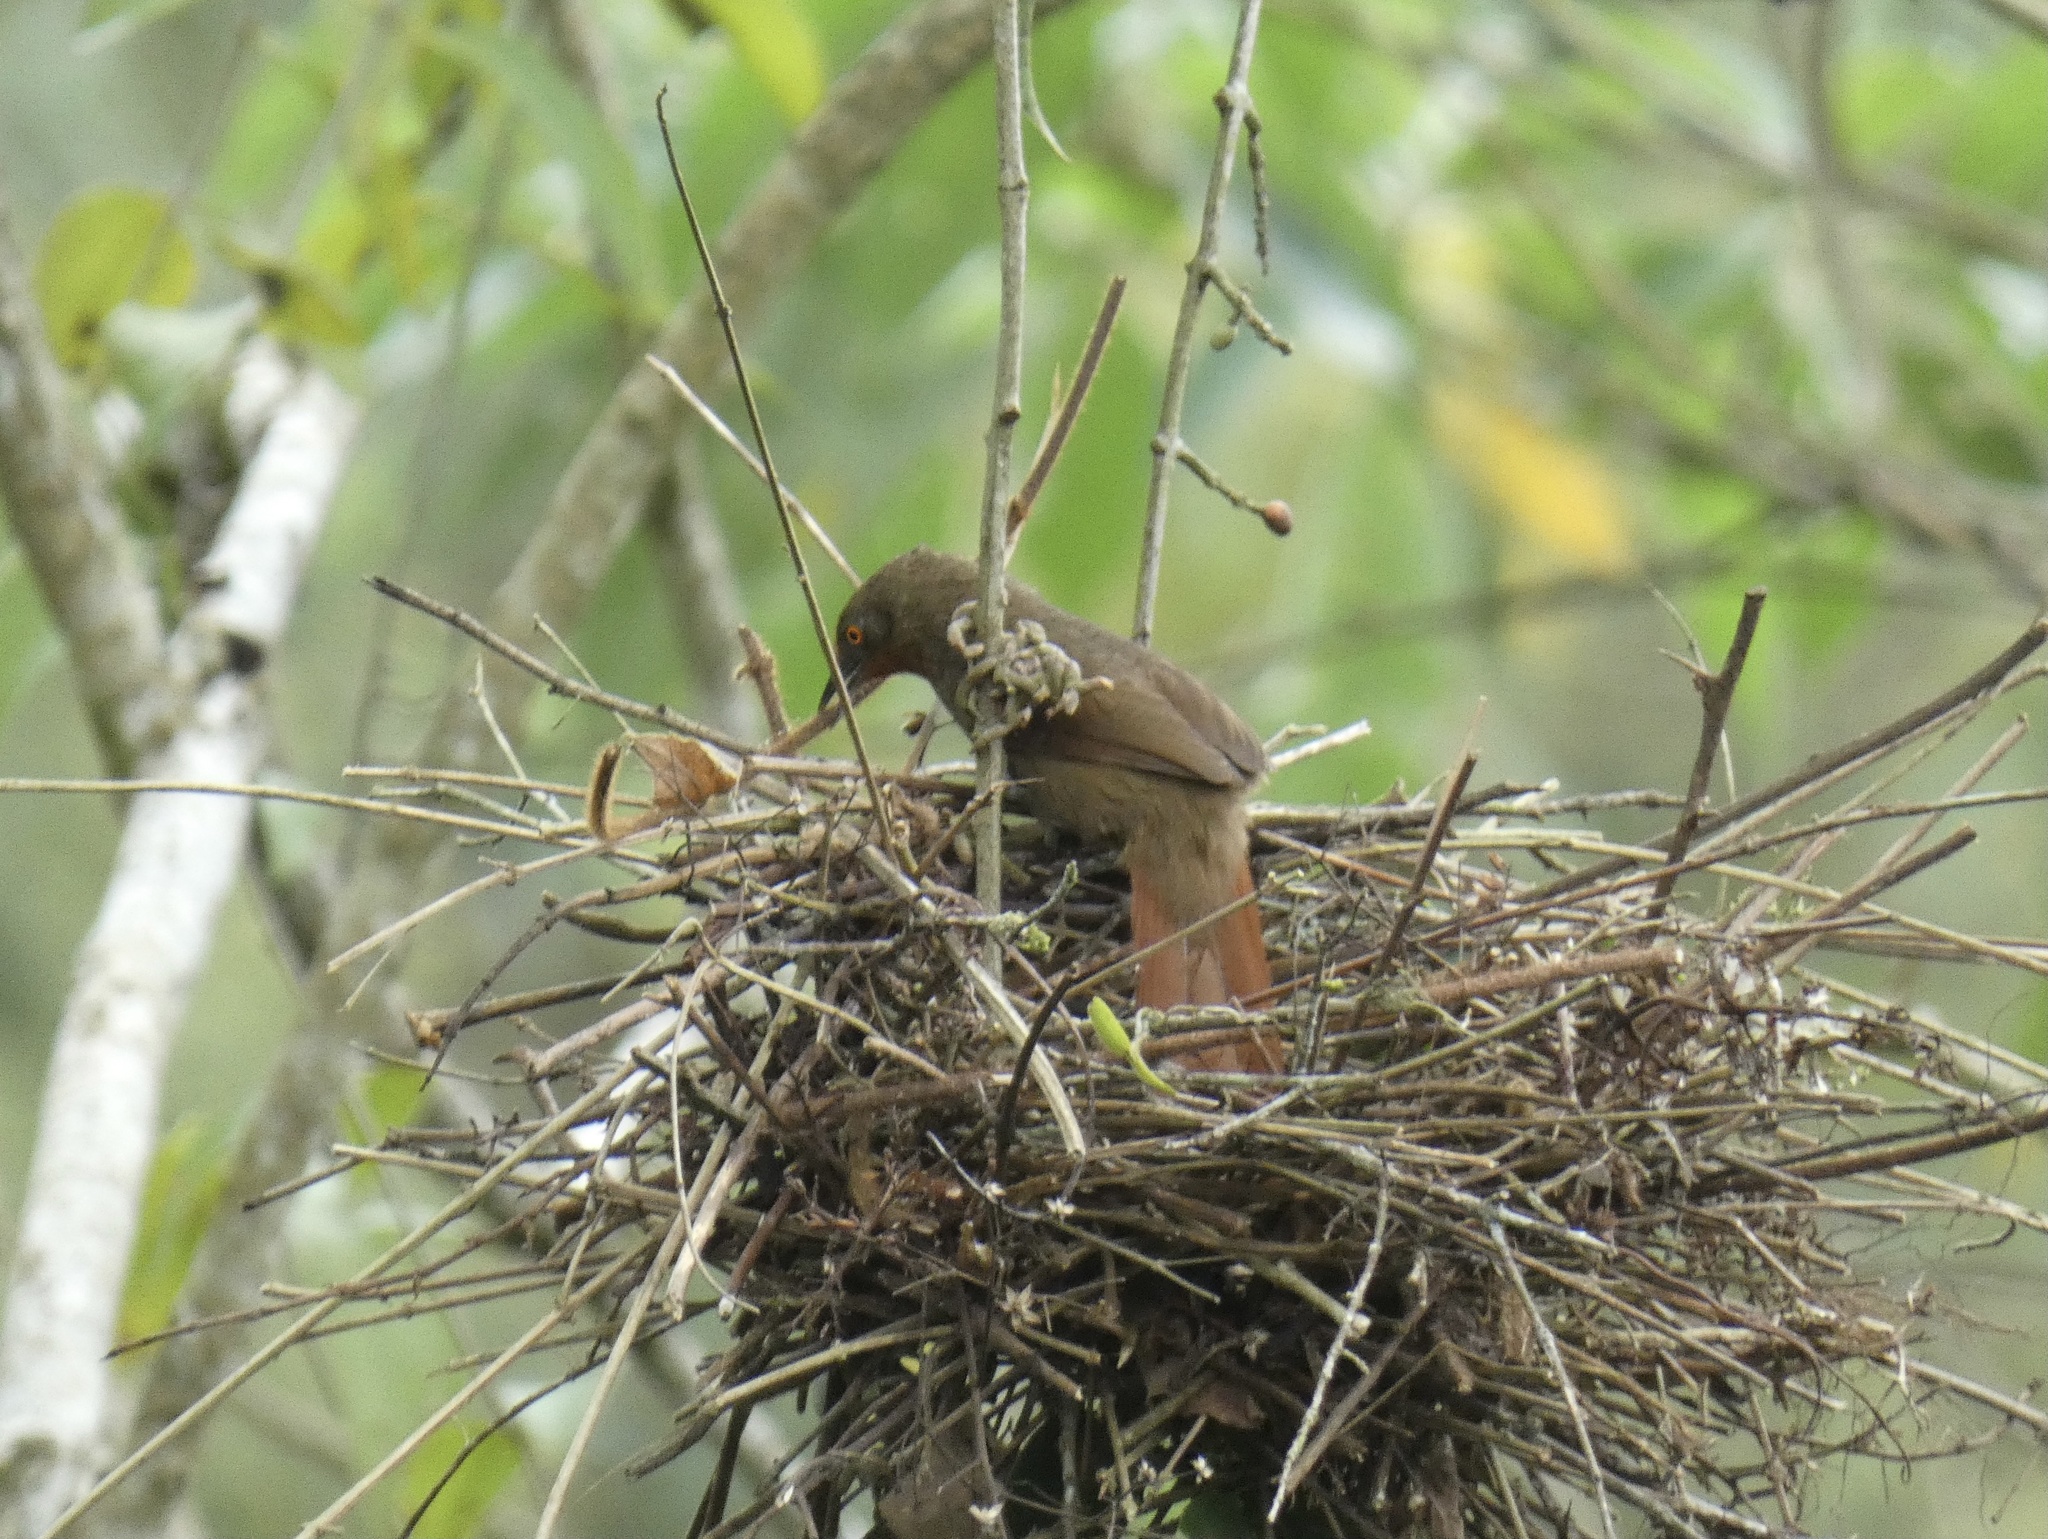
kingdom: Animalia
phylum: Chordata
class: Aves
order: Passeriformes
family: Furnariidae
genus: Phacellodomus
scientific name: Phacellodomus erythrophthalmus
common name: Orange-eyed thornbird
